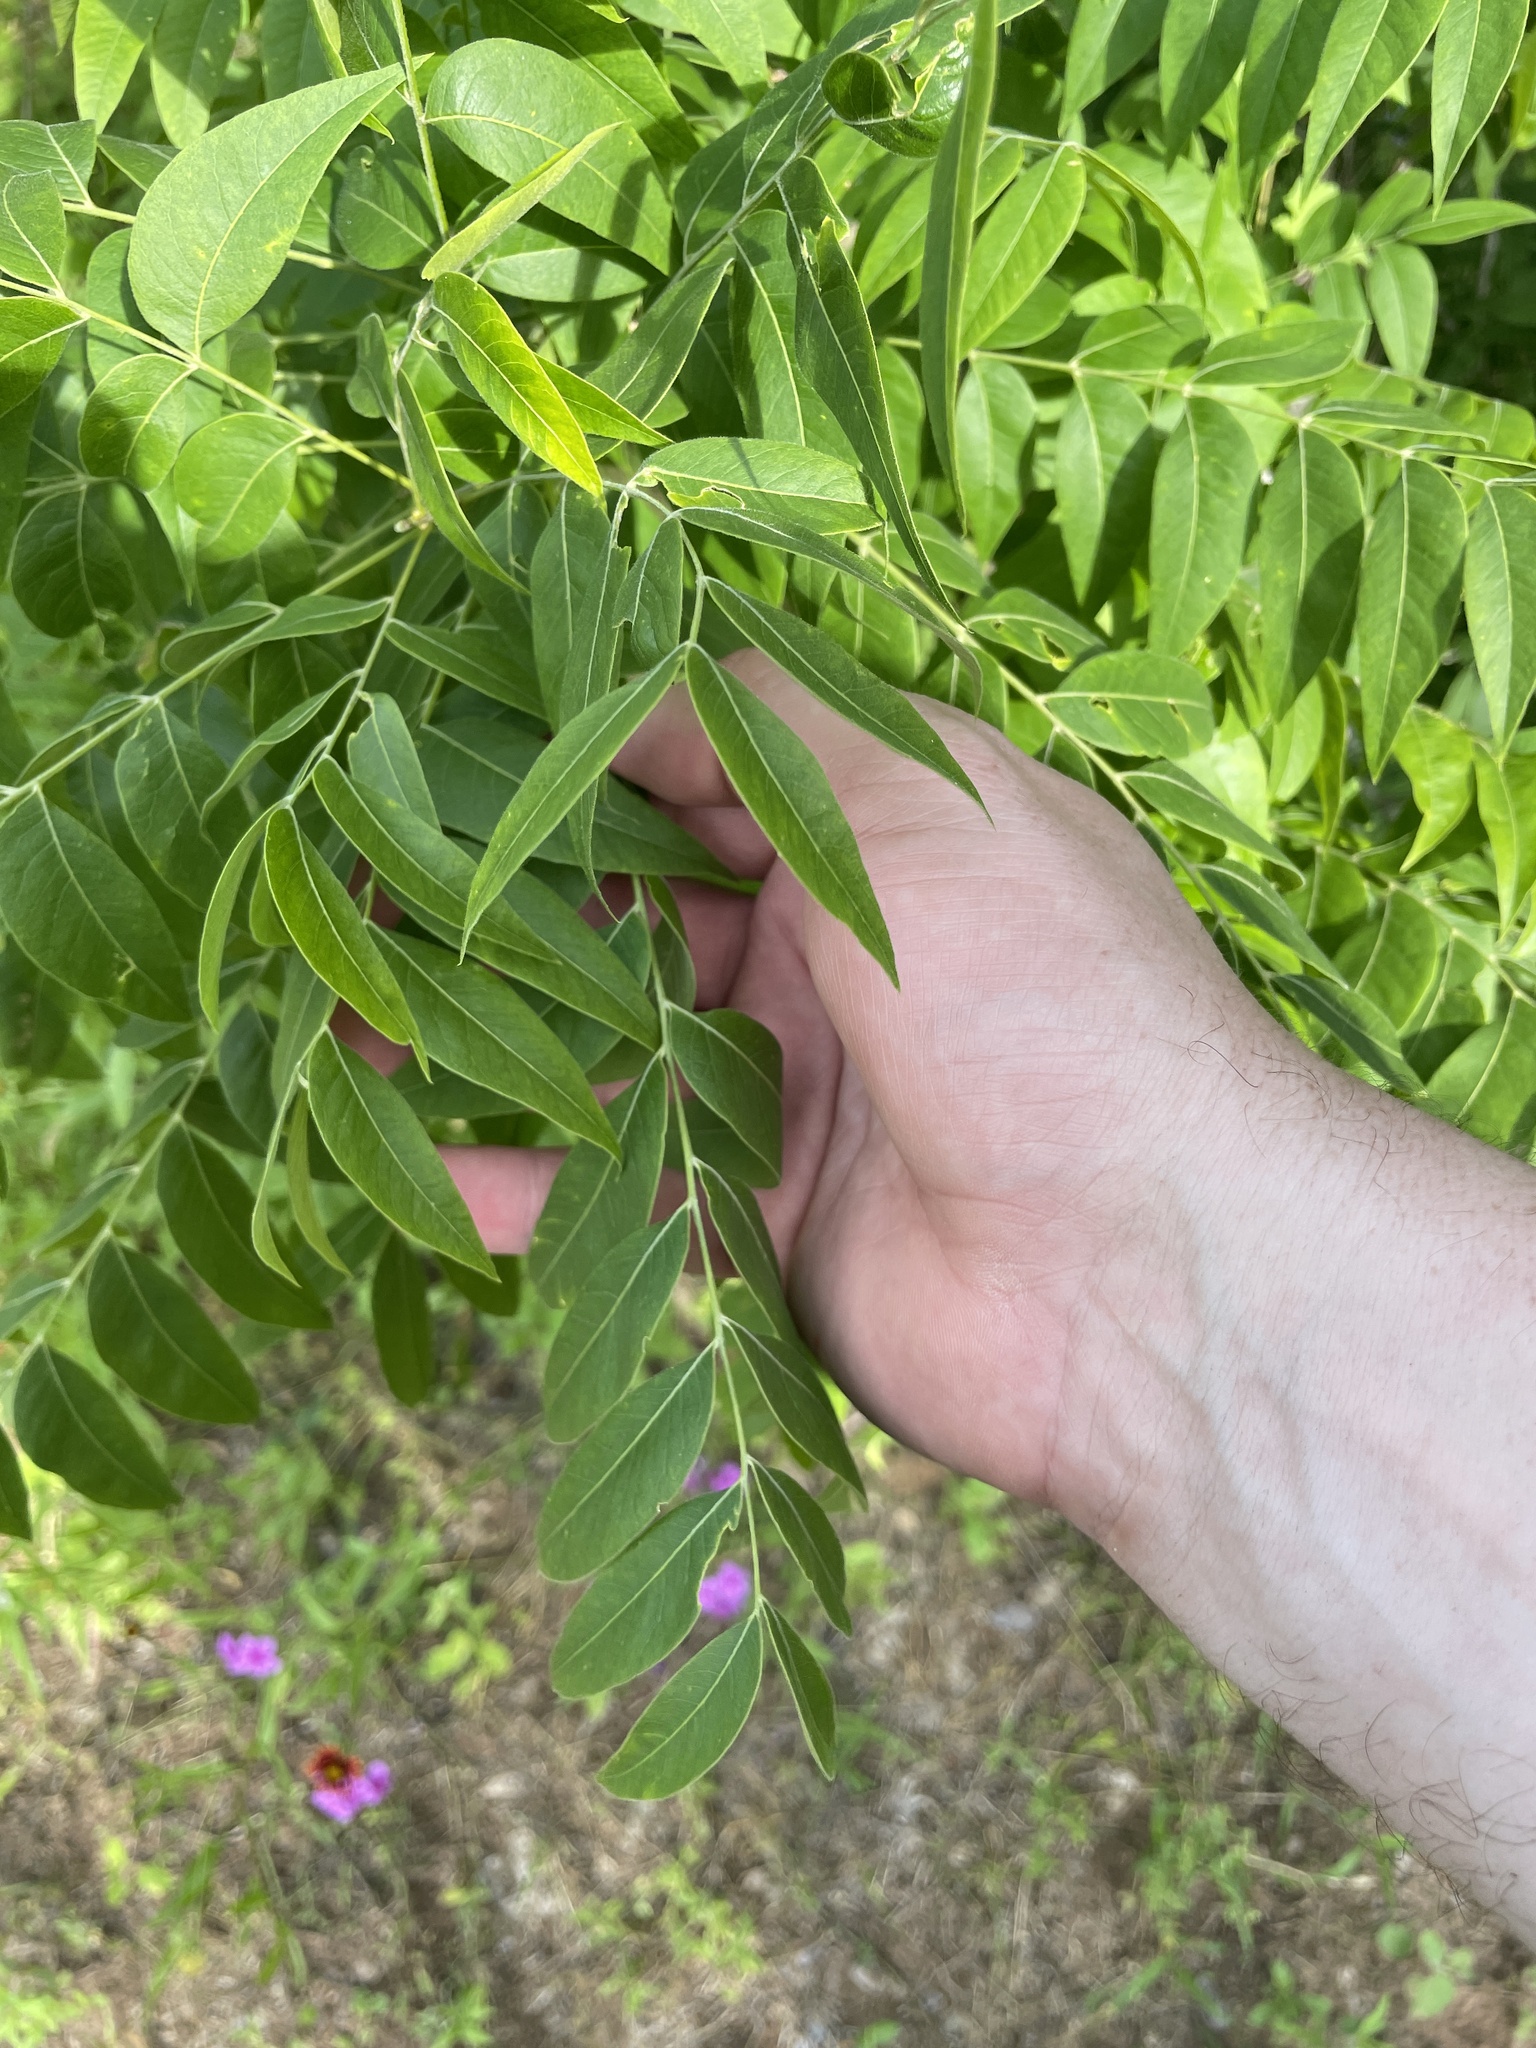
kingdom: Plantae
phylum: Tracheophyta
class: Magnoliopsida
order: Sapindales
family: Sapindaceae
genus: Sapindus
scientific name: Sapindus drummondii
